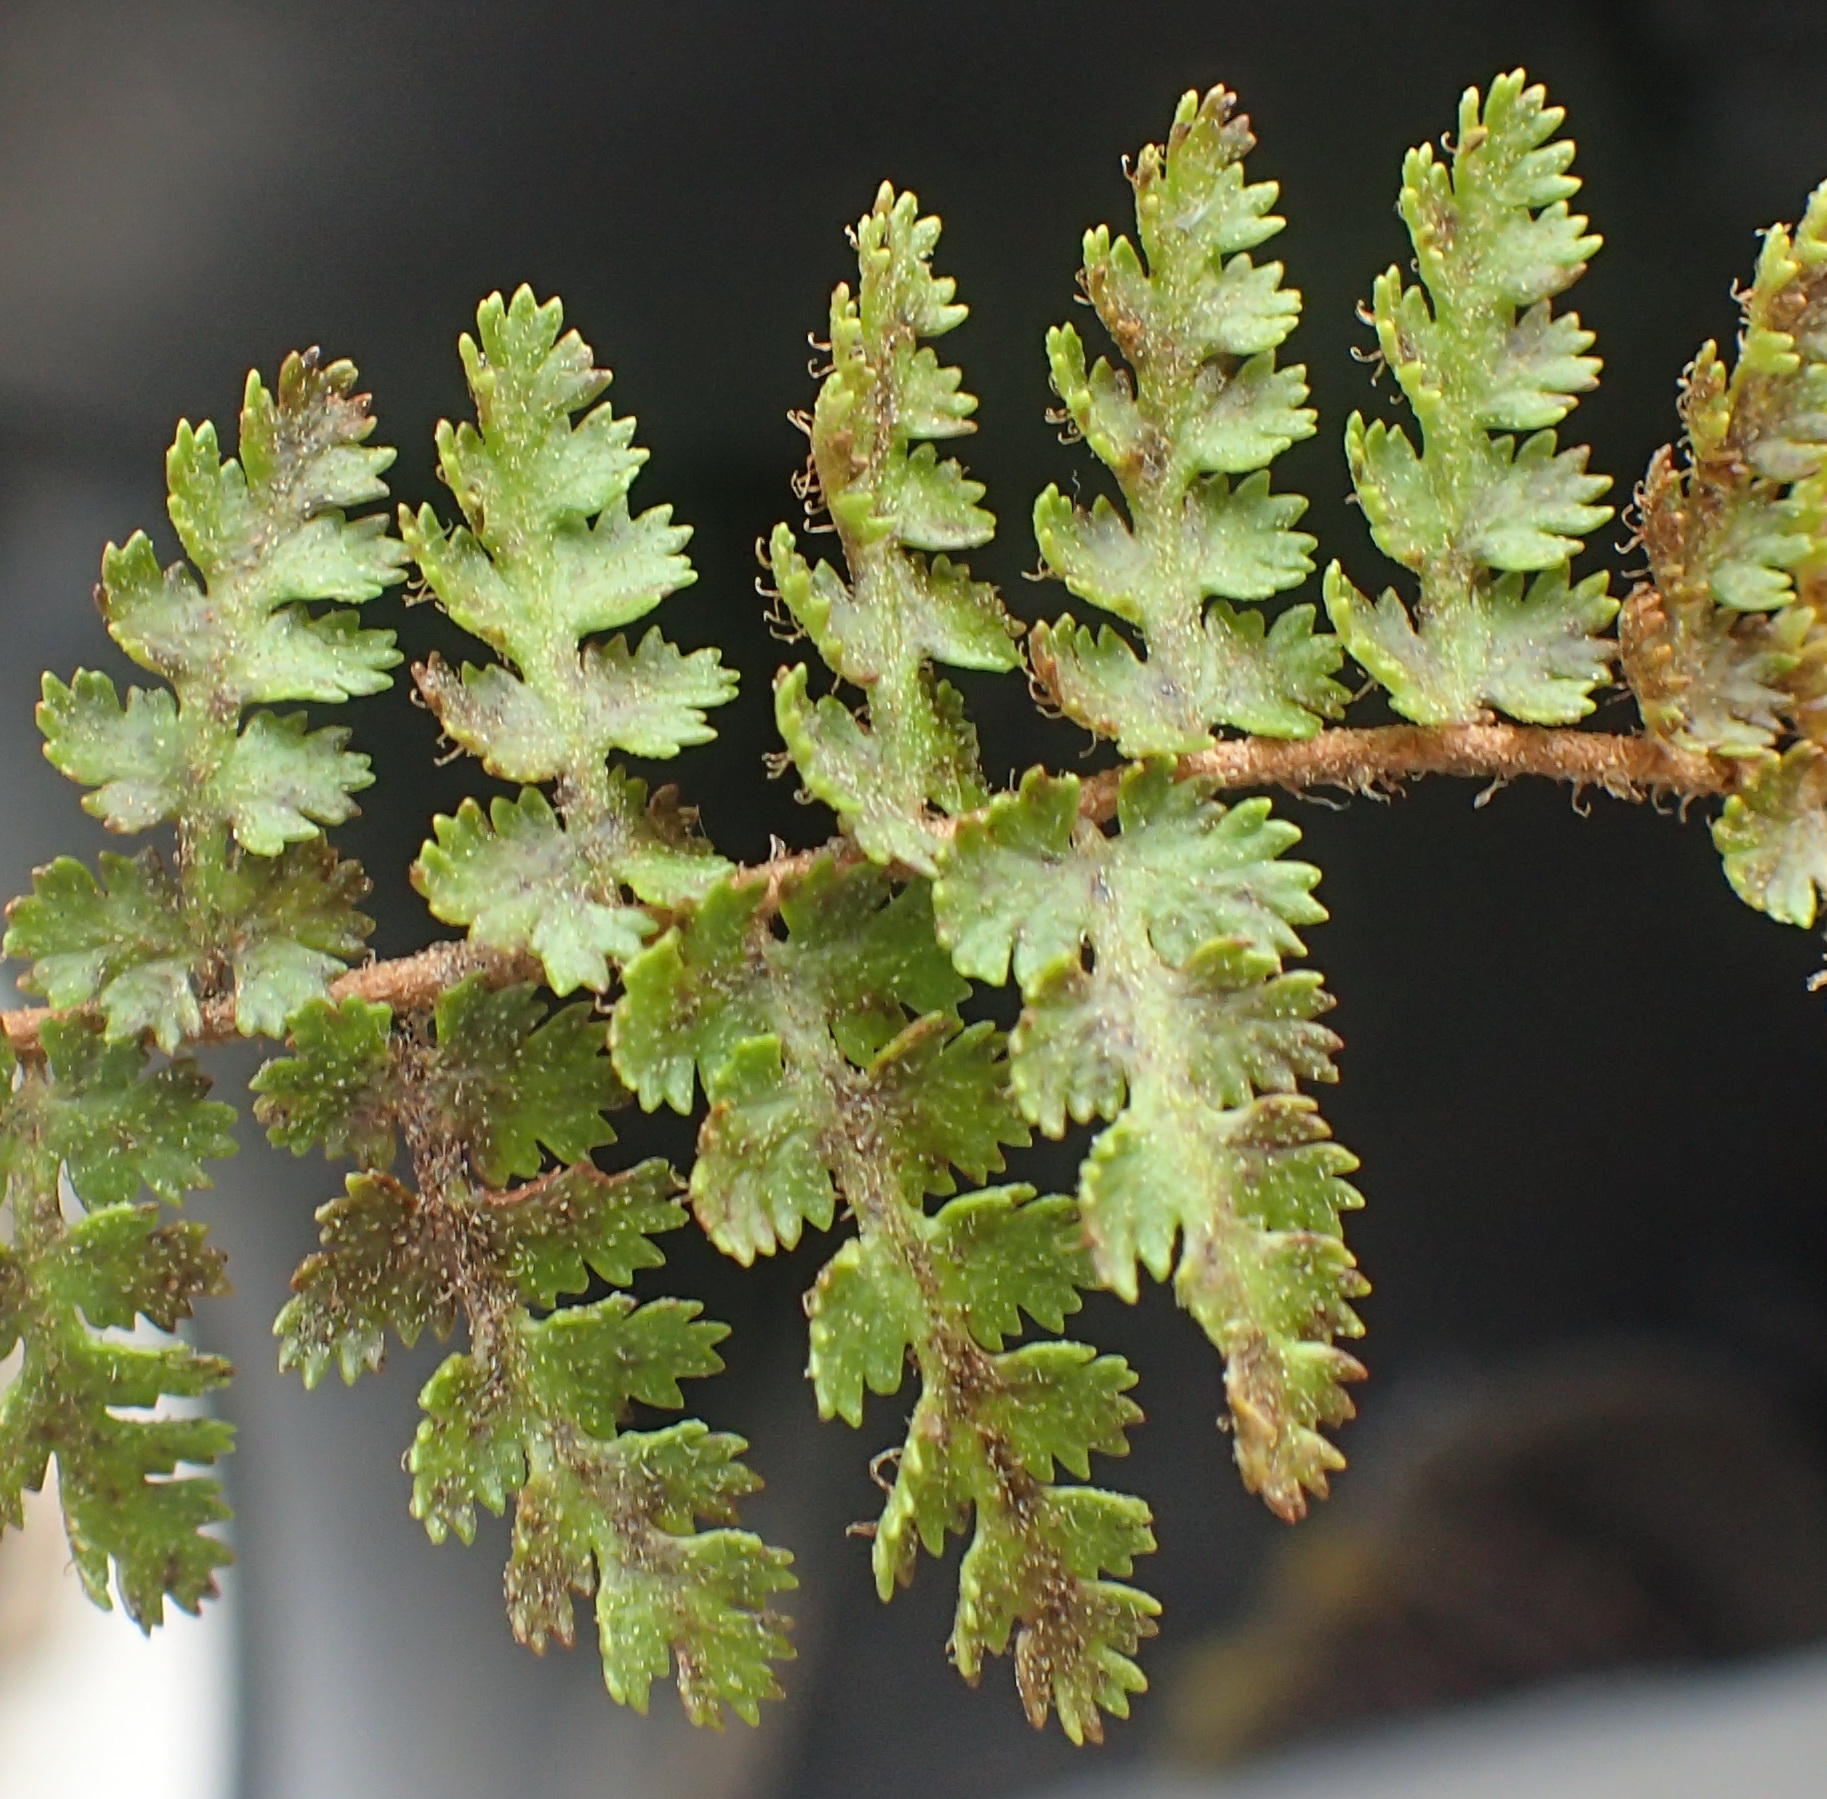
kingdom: Plantae
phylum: Tracheophyta
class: Polypodiopsida
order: Schizaeales
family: Anemiaceae
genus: Anemia
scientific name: Anemia caffrorum
